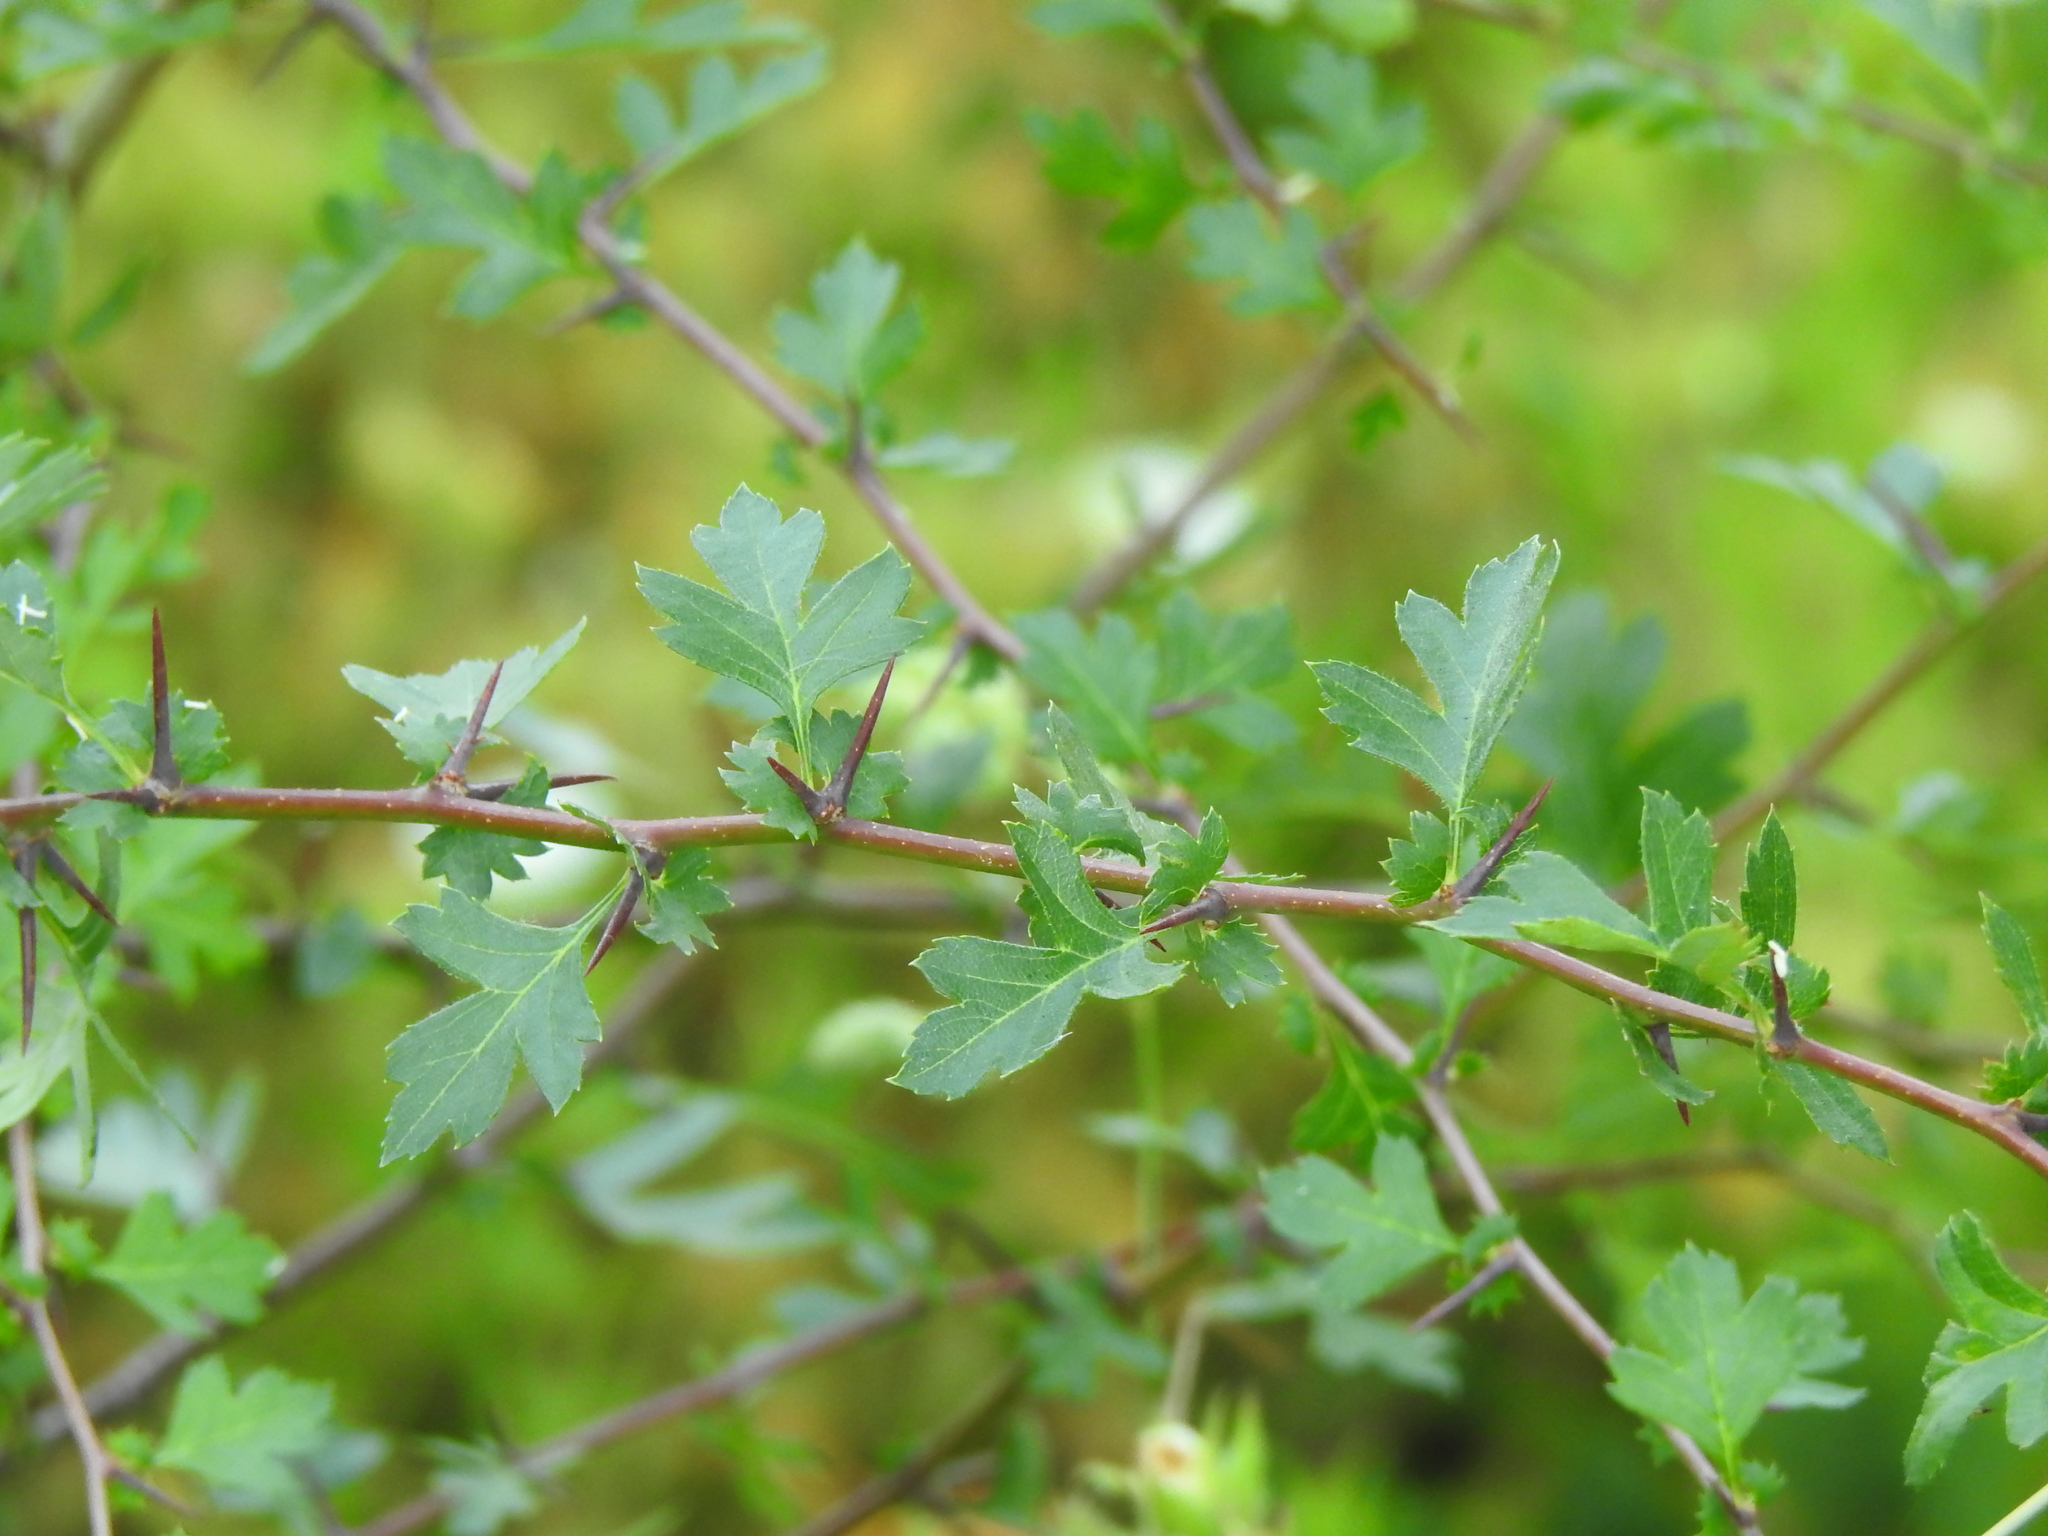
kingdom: Plantae
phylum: Tracheophyta
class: Magnoliopsida
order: Rosales
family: Rosaceae
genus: Crataegus
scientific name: Crataegus monogyna
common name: Hawthorn
